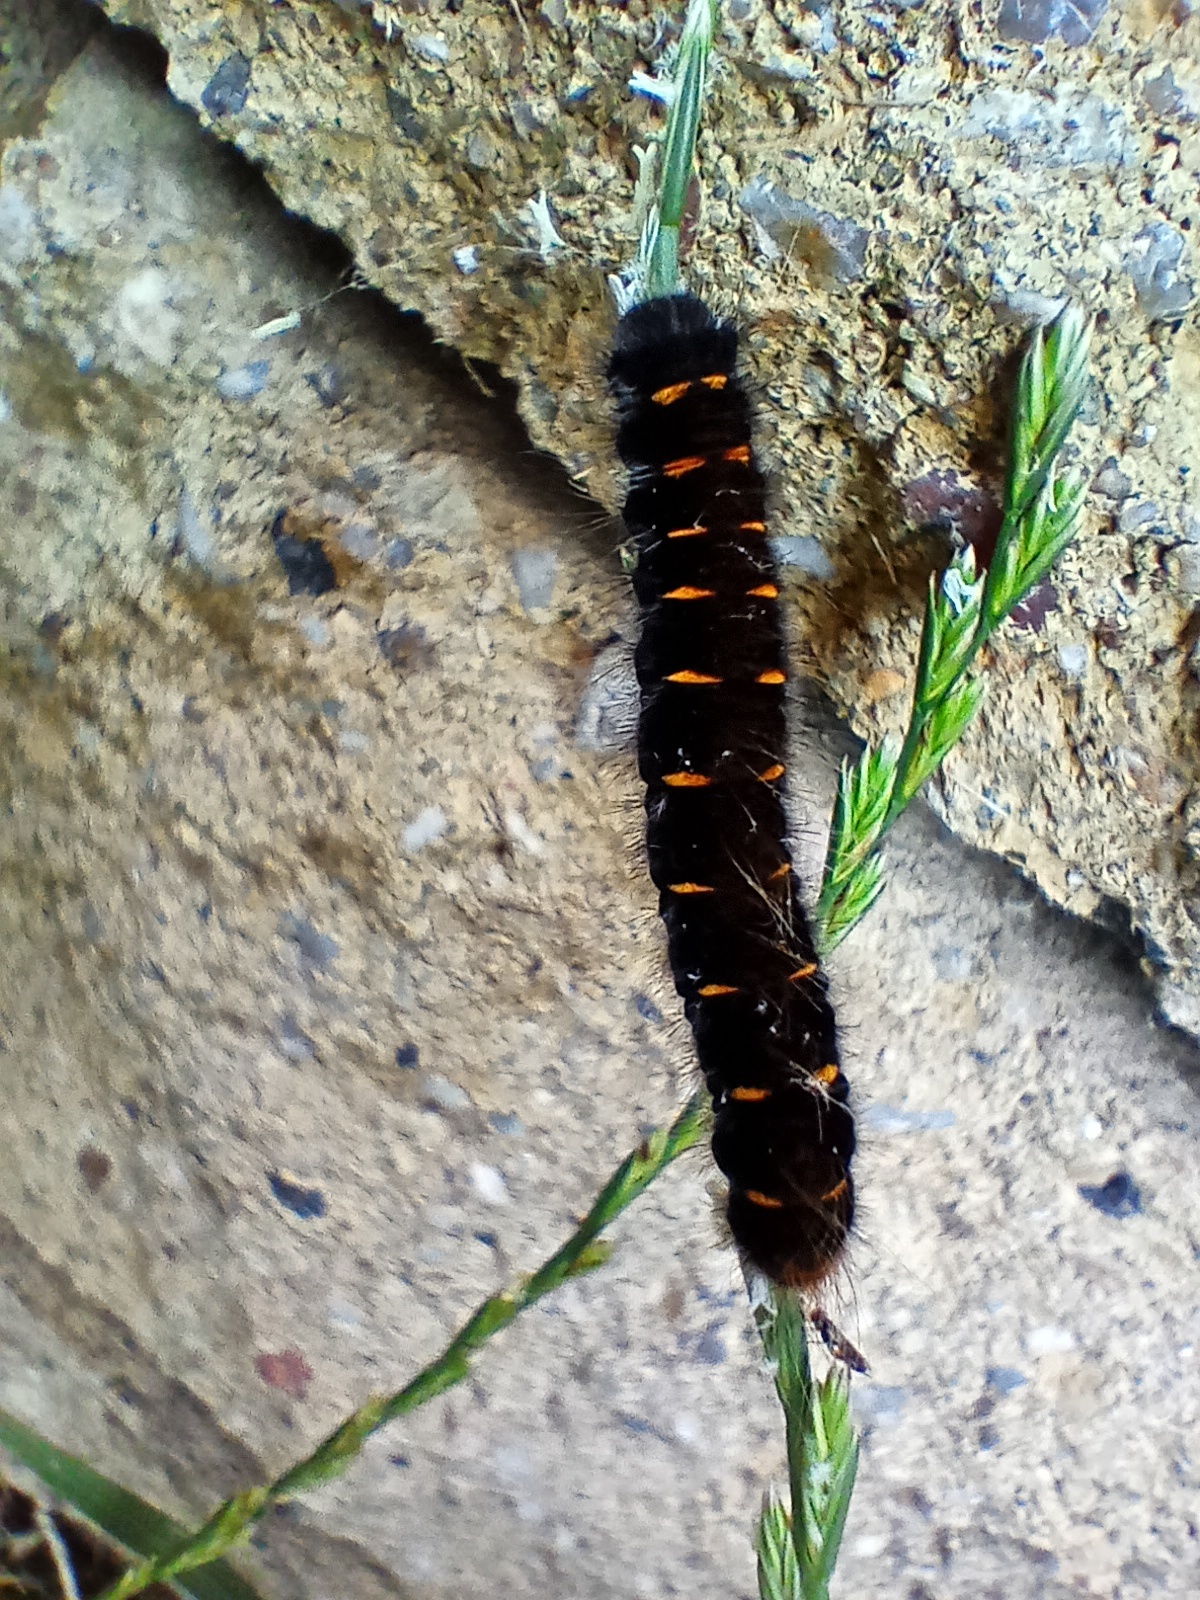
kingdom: Animalia
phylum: Arthropoda
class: Insecta
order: Lepidoptera
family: Lasiocampidae
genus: Macrothylacia
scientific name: Macrothylacia rubi
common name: Fox moth
